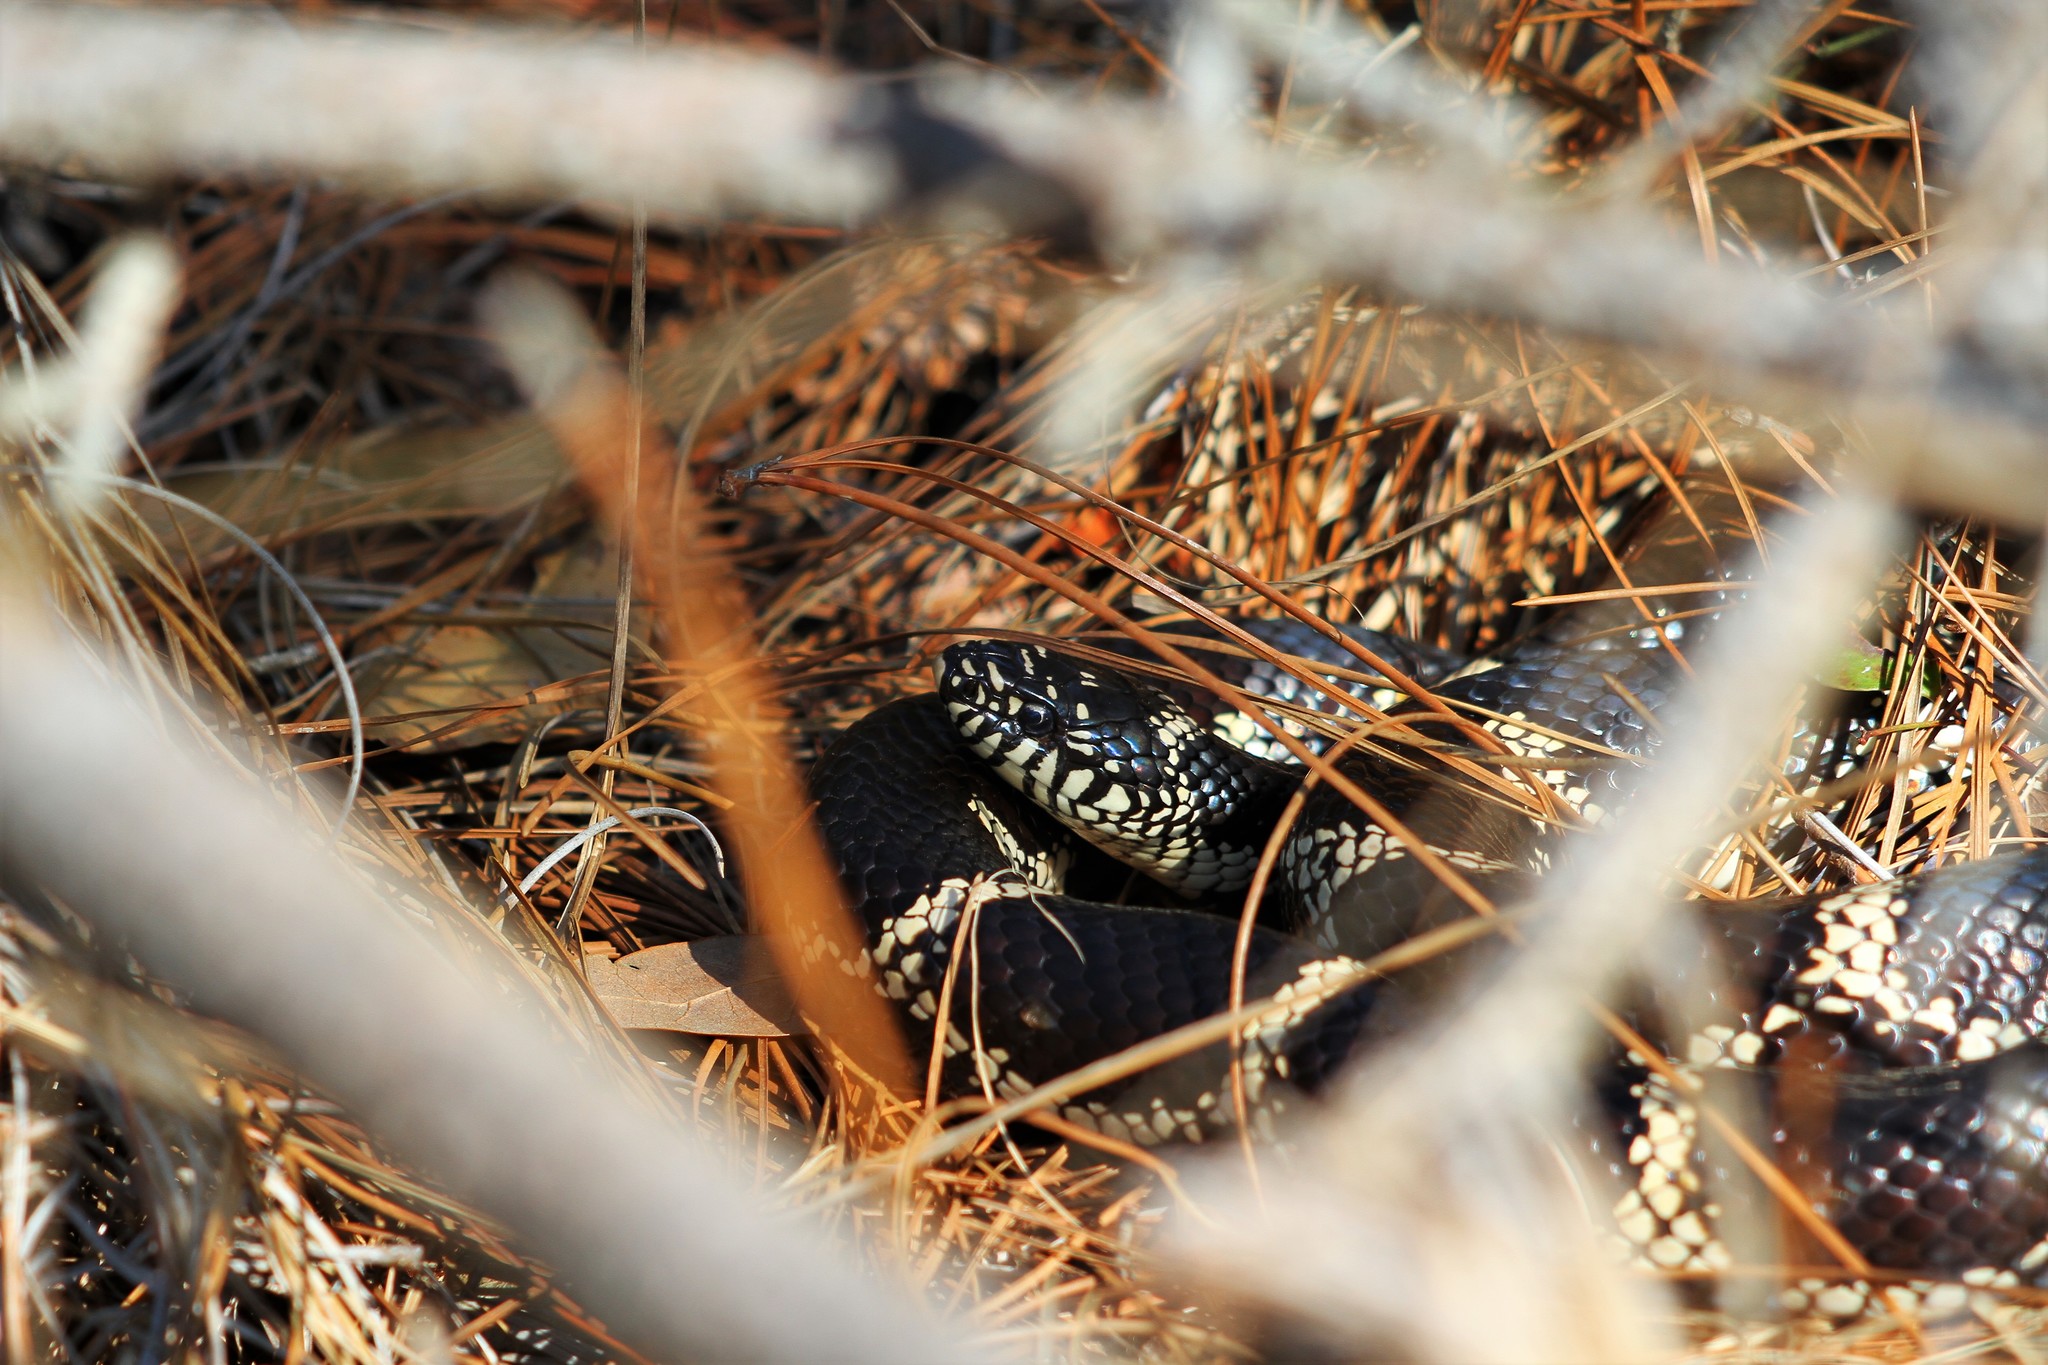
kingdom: Animalia
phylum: Chordata
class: Squamata
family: Colubridae
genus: Lampropeltis
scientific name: Lampropeltis getula
